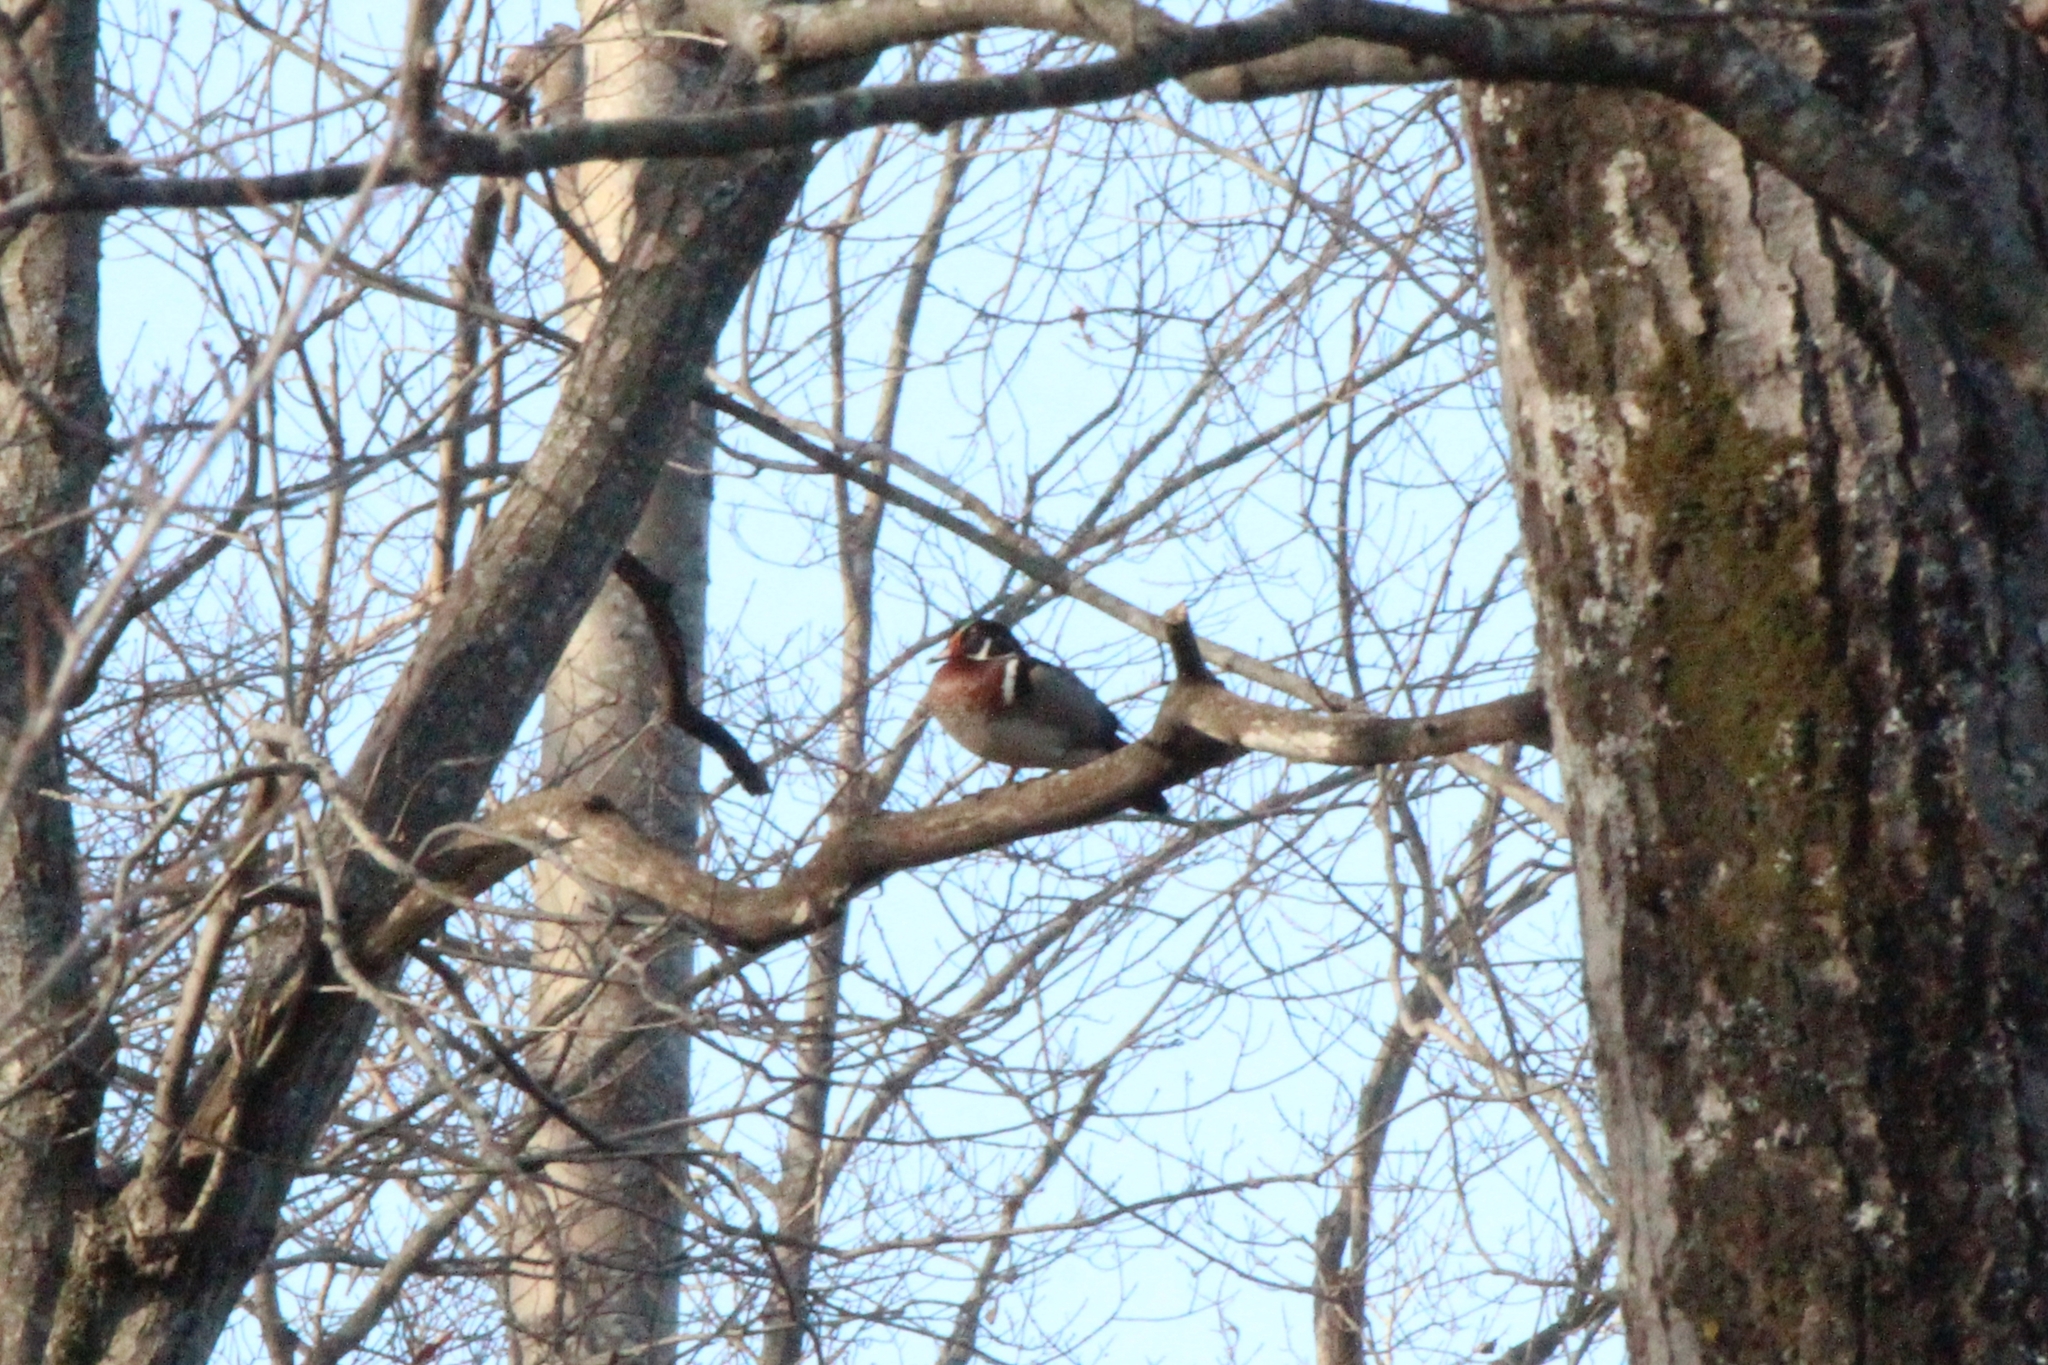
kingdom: Animalia
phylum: Chordata
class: Aves
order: Anseriformes
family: Anatidae
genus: Aix
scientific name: Aix sponsa
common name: Wood duck
